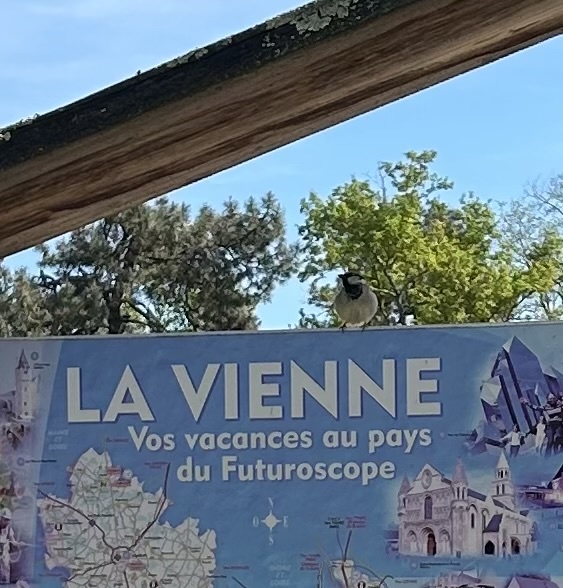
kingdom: Animalia
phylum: Chordata
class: Aves
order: Passeriformes
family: Passeridae
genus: Passer
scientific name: Passer domesticus
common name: House sparrow
